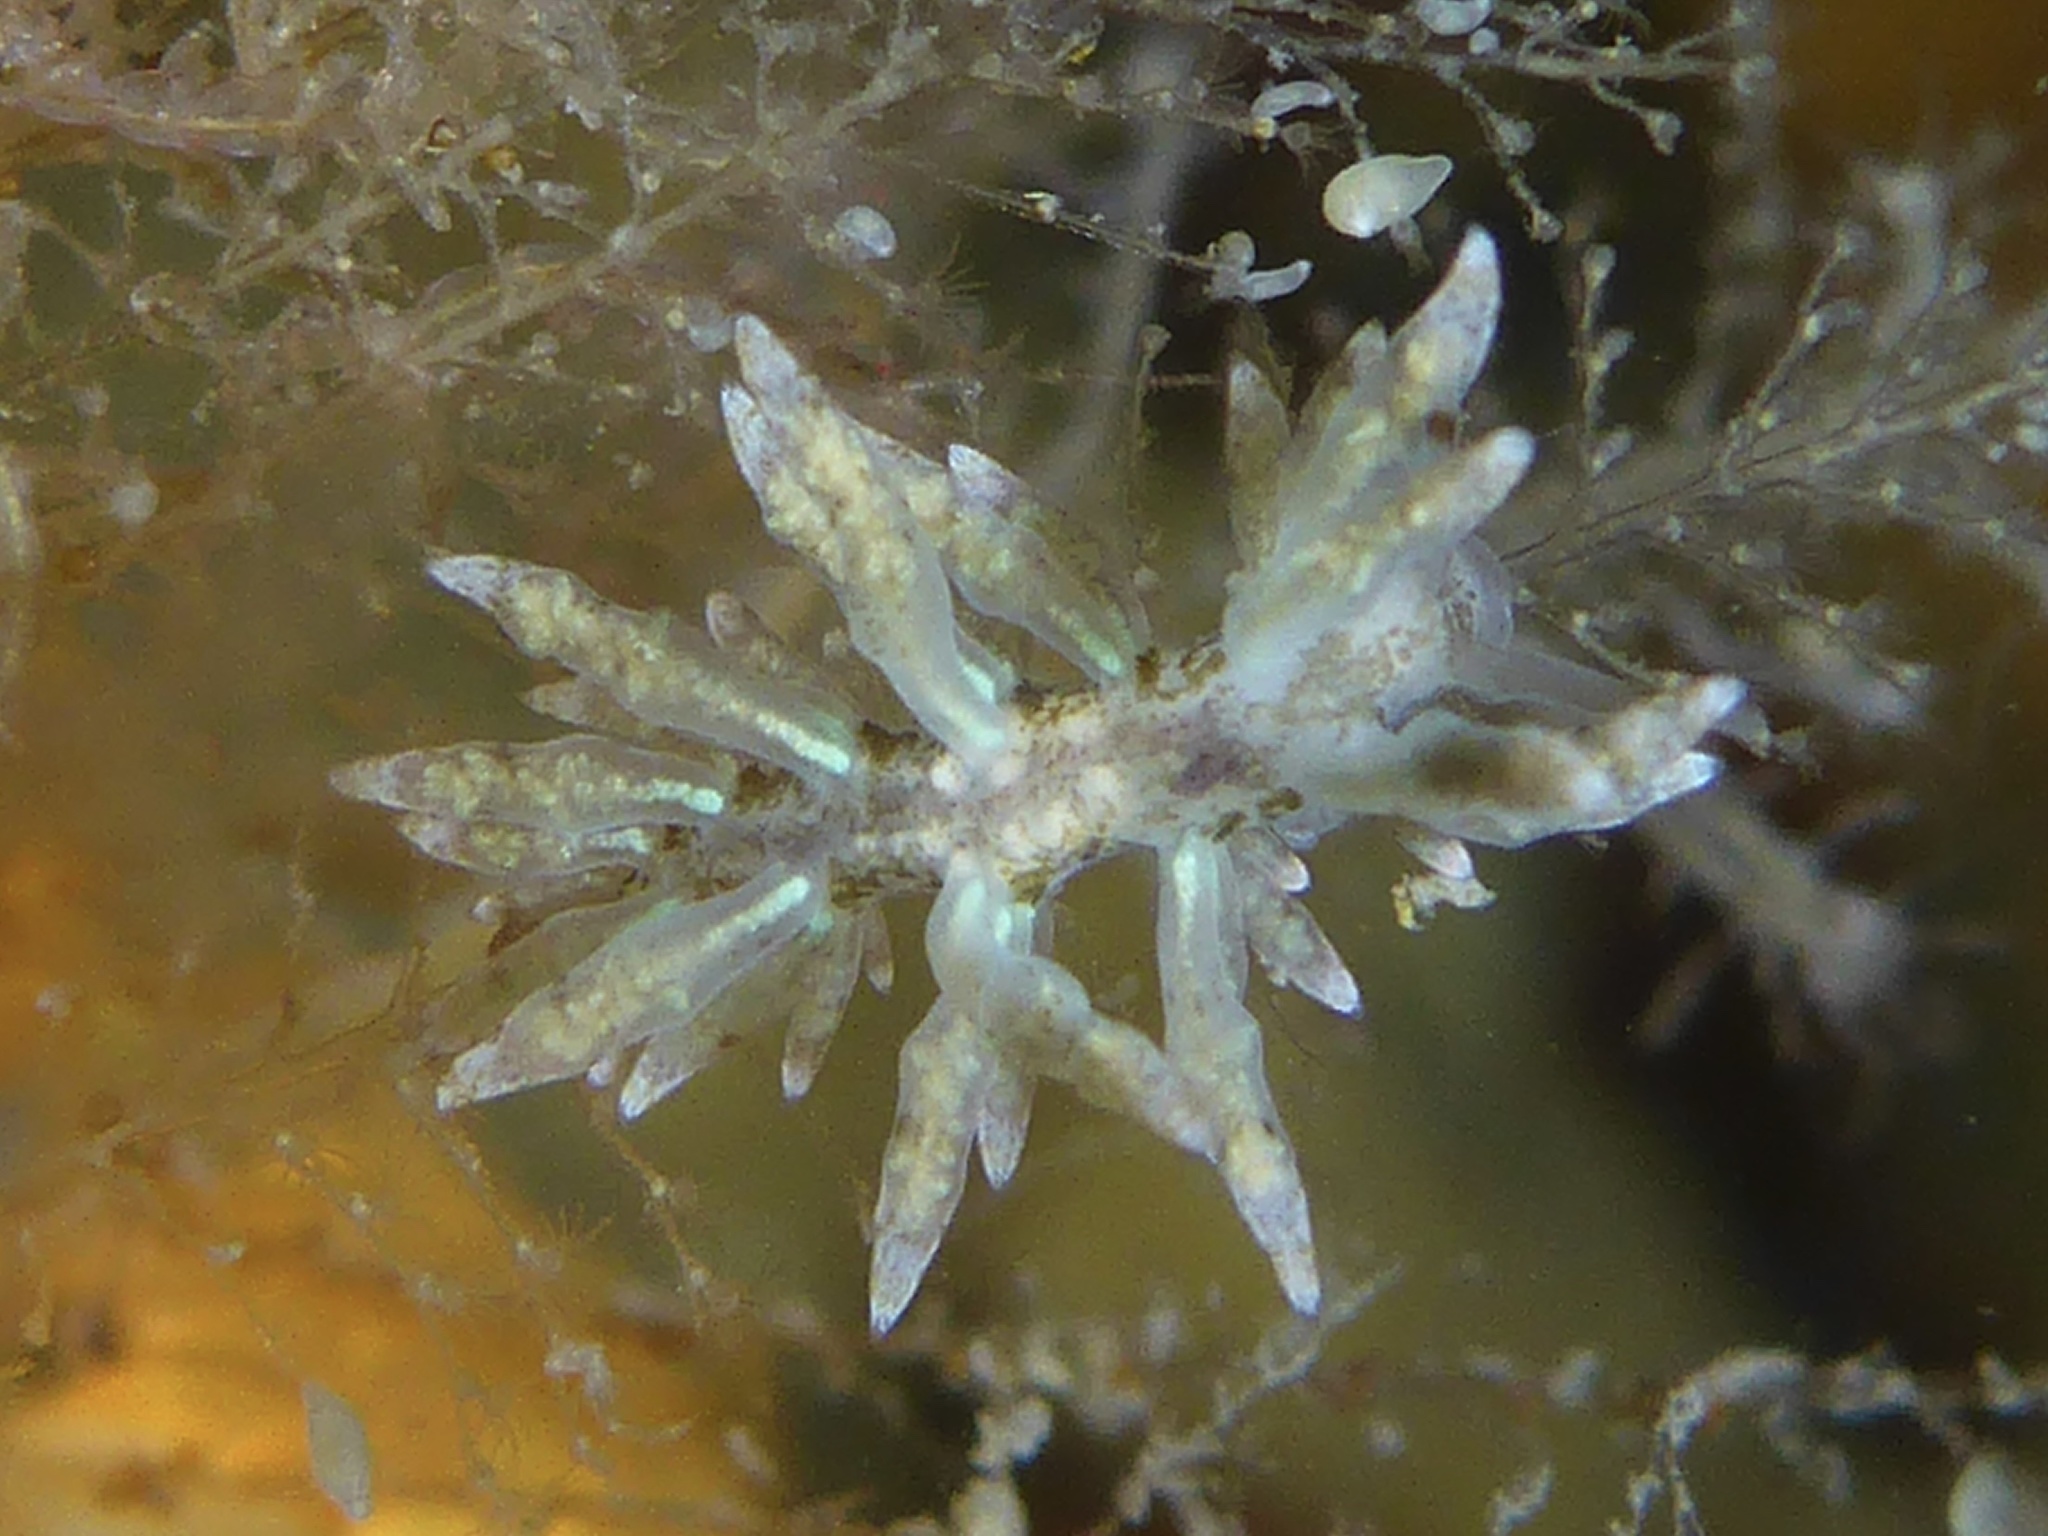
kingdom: Animalia
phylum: Mollusca
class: Gastropoda
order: Nudibranchia
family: Eubranchidae
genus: Eubranchus
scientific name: Eubranchus rustyus
